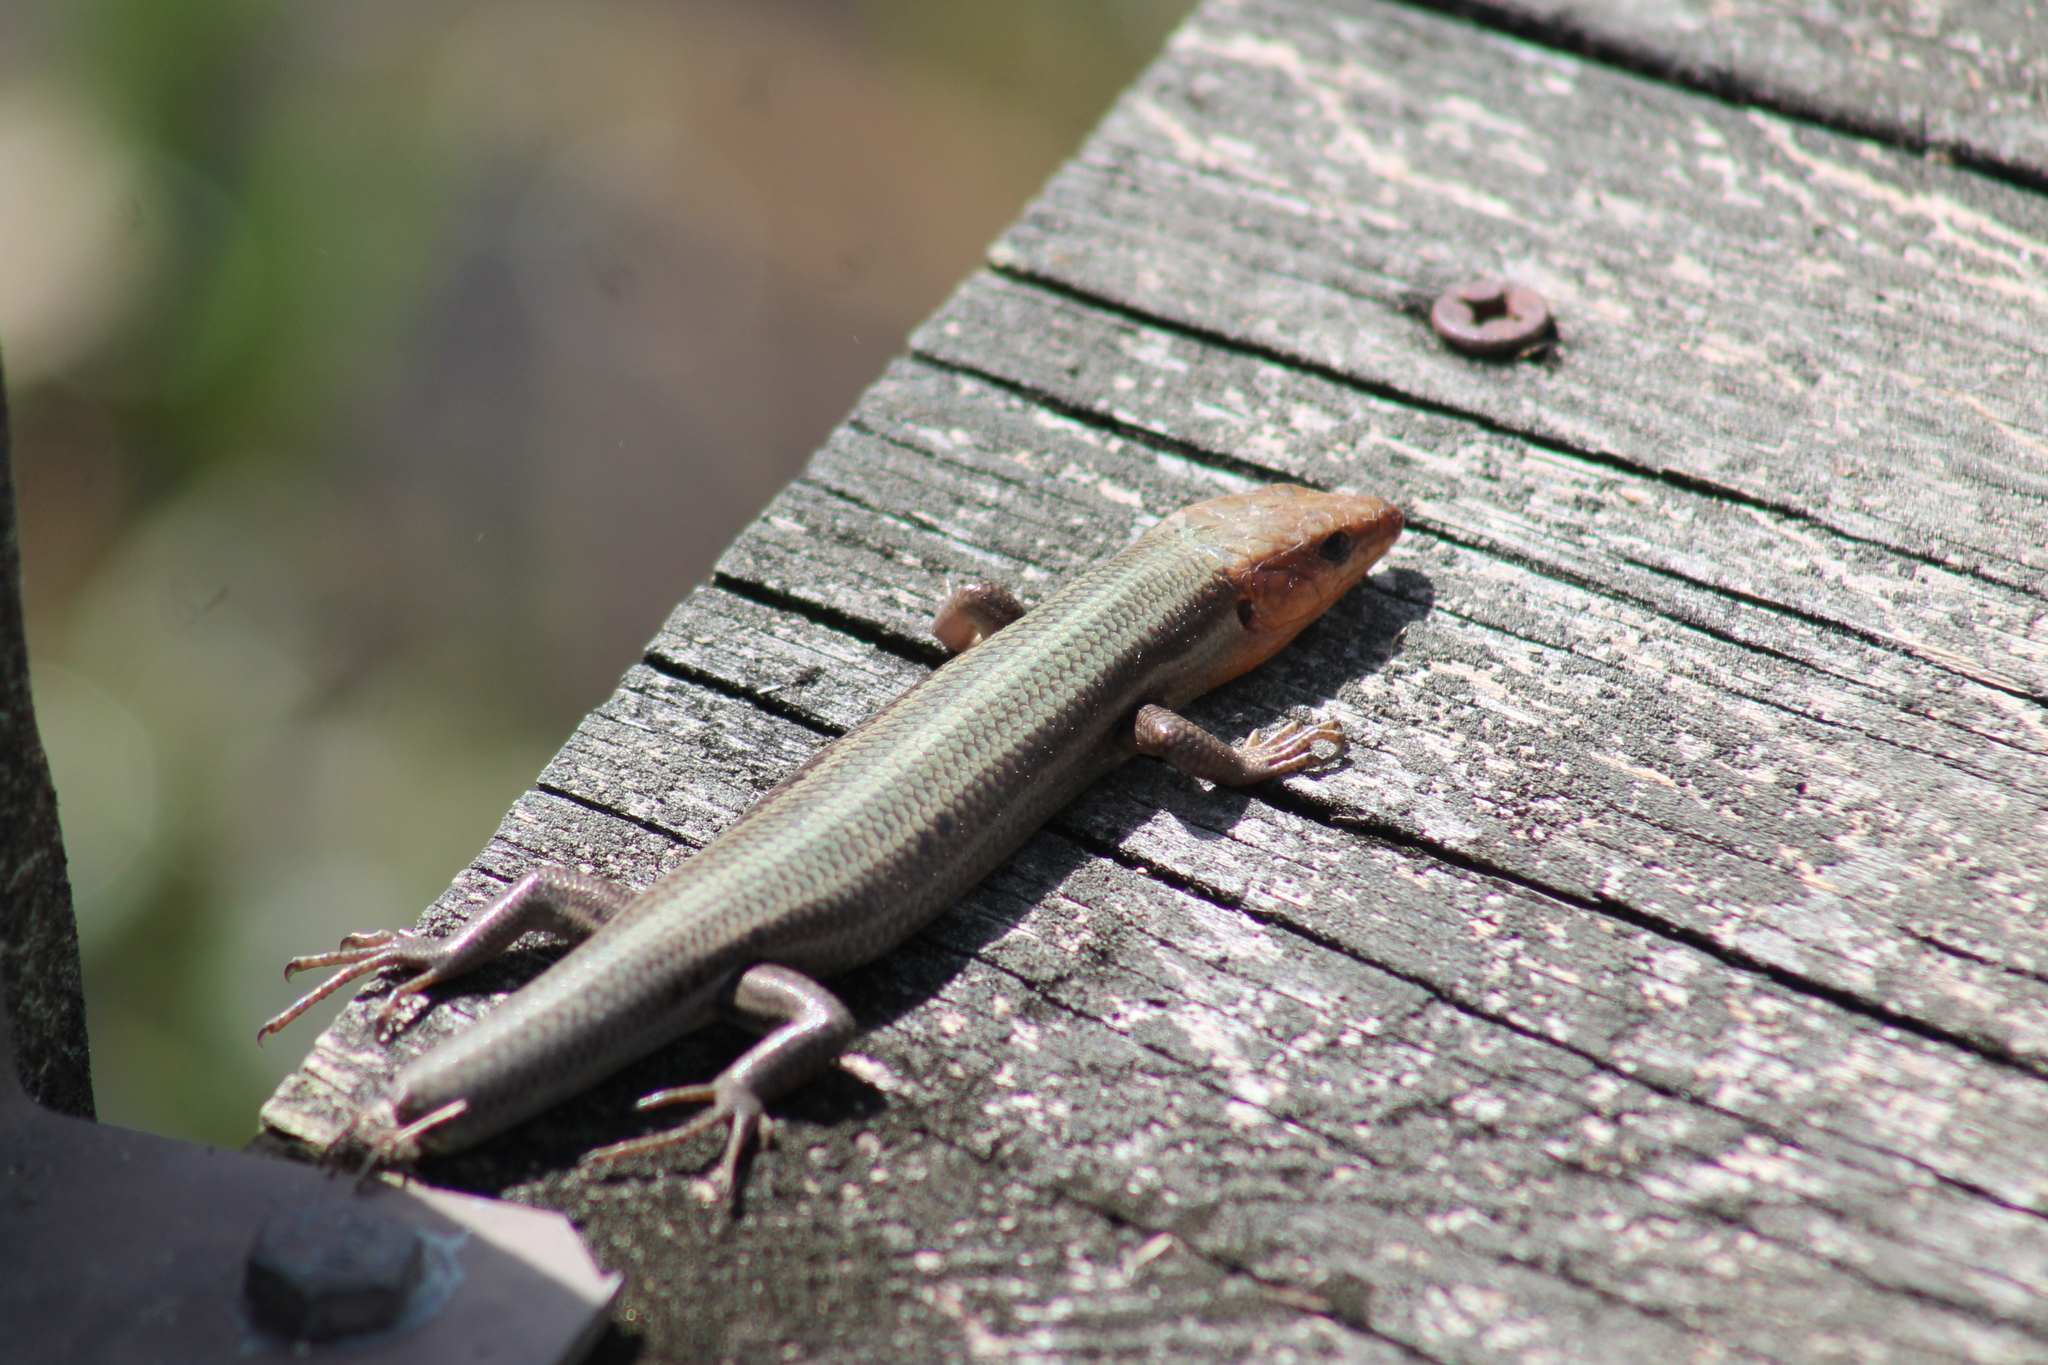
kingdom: Animalia
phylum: Chordata
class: Squamata
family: Scincidae
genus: Plestiodon
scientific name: Plestiodon fasciatus
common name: Five-lined skink
